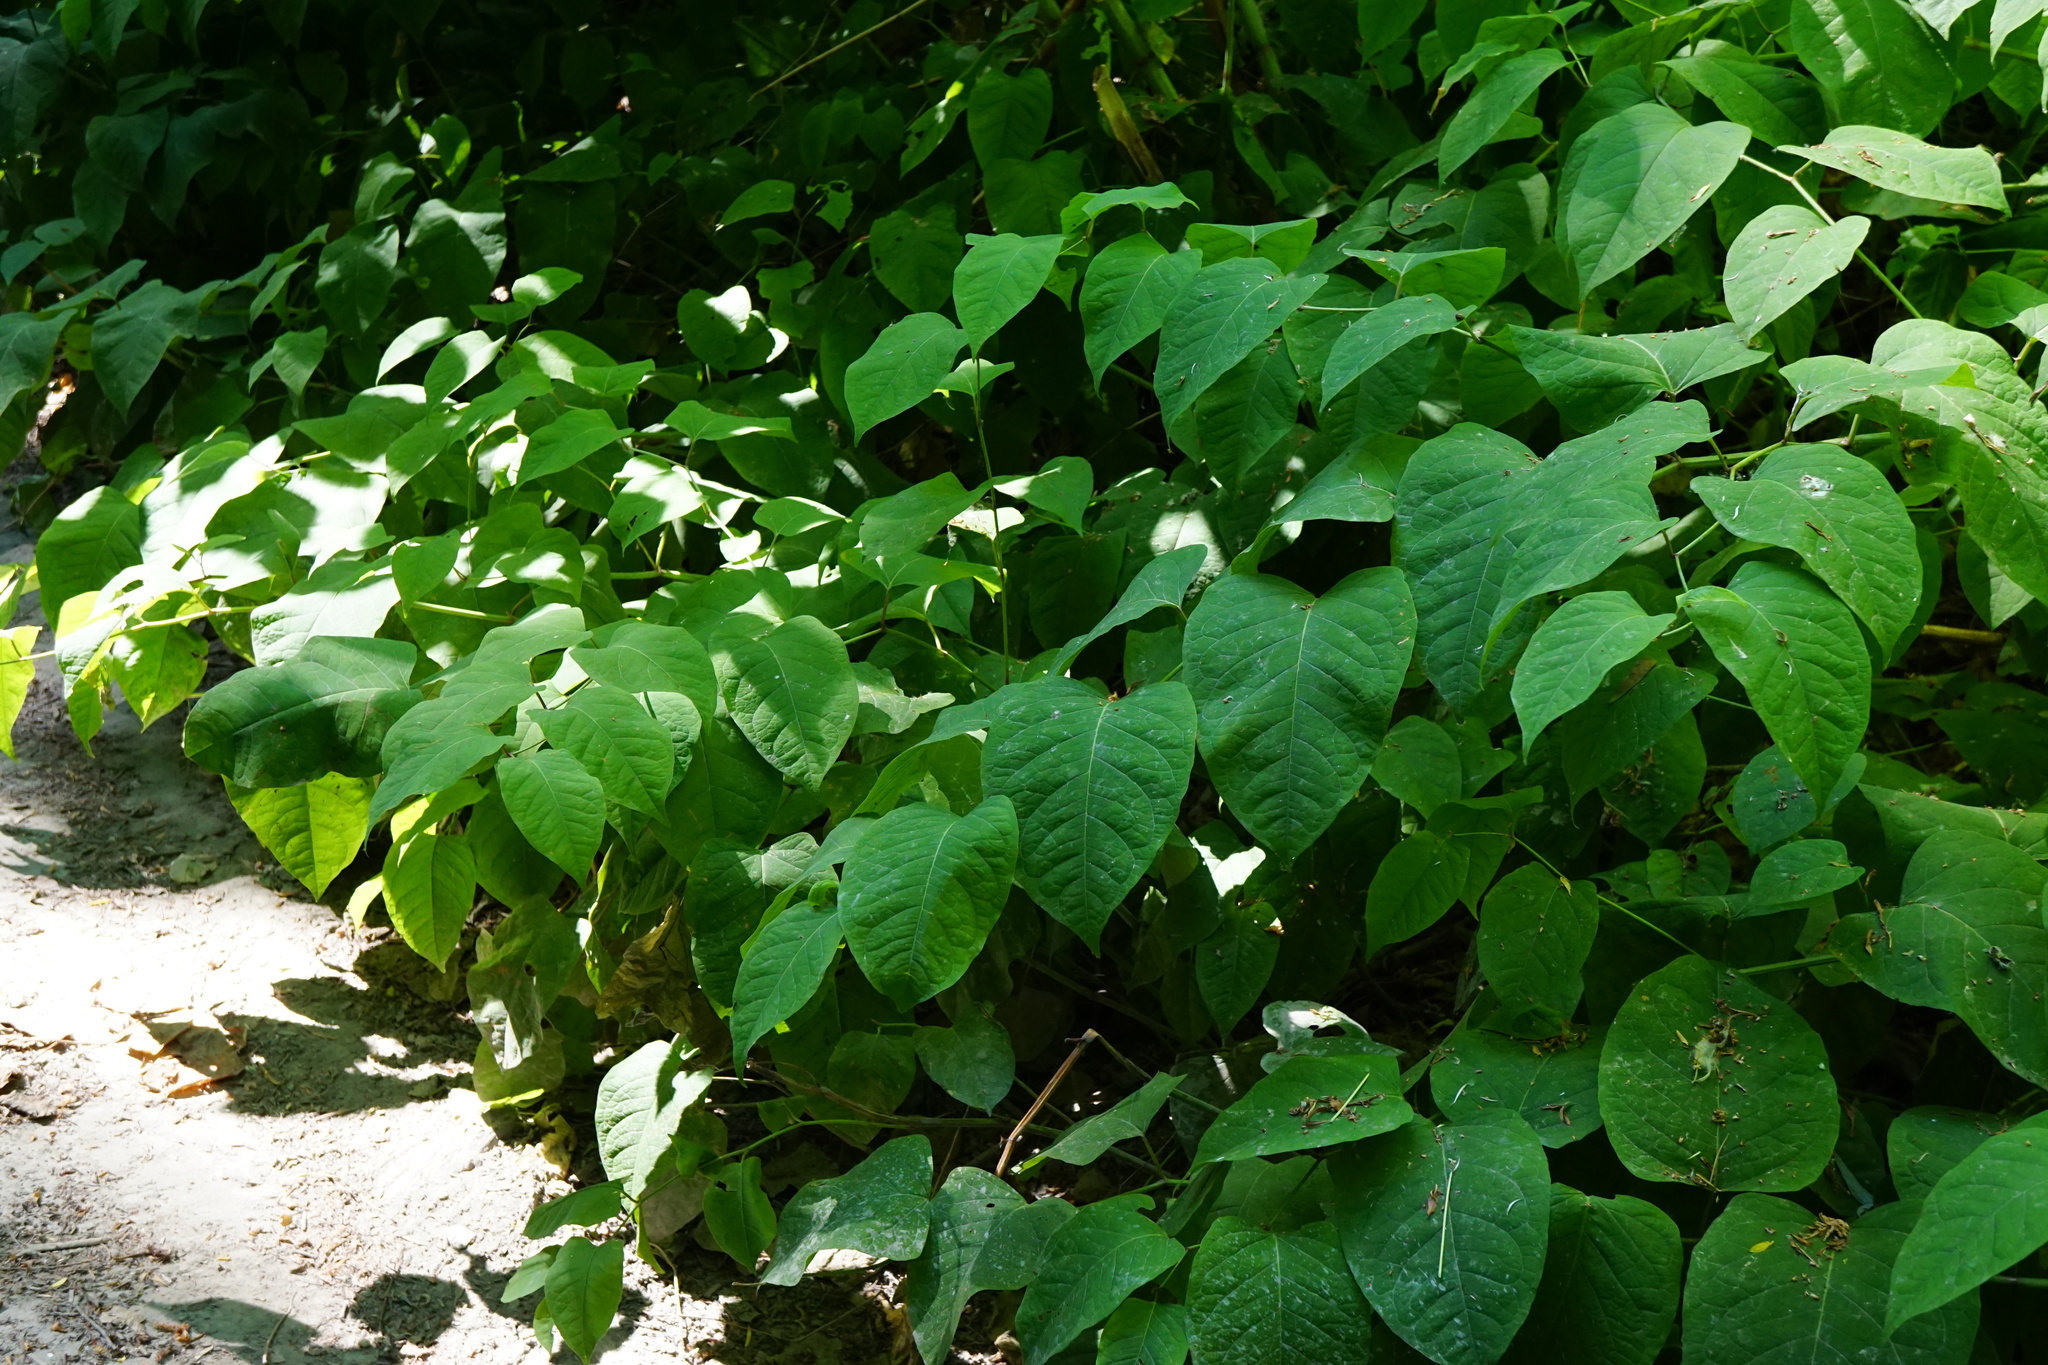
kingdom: Plantae
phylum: Tracheophyta
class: Magnoliopsida
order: Caryophyllales
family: Polygonaceae
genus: Reynoutria
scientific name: Reynoutria bohemica
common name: Bohemian knotweed
